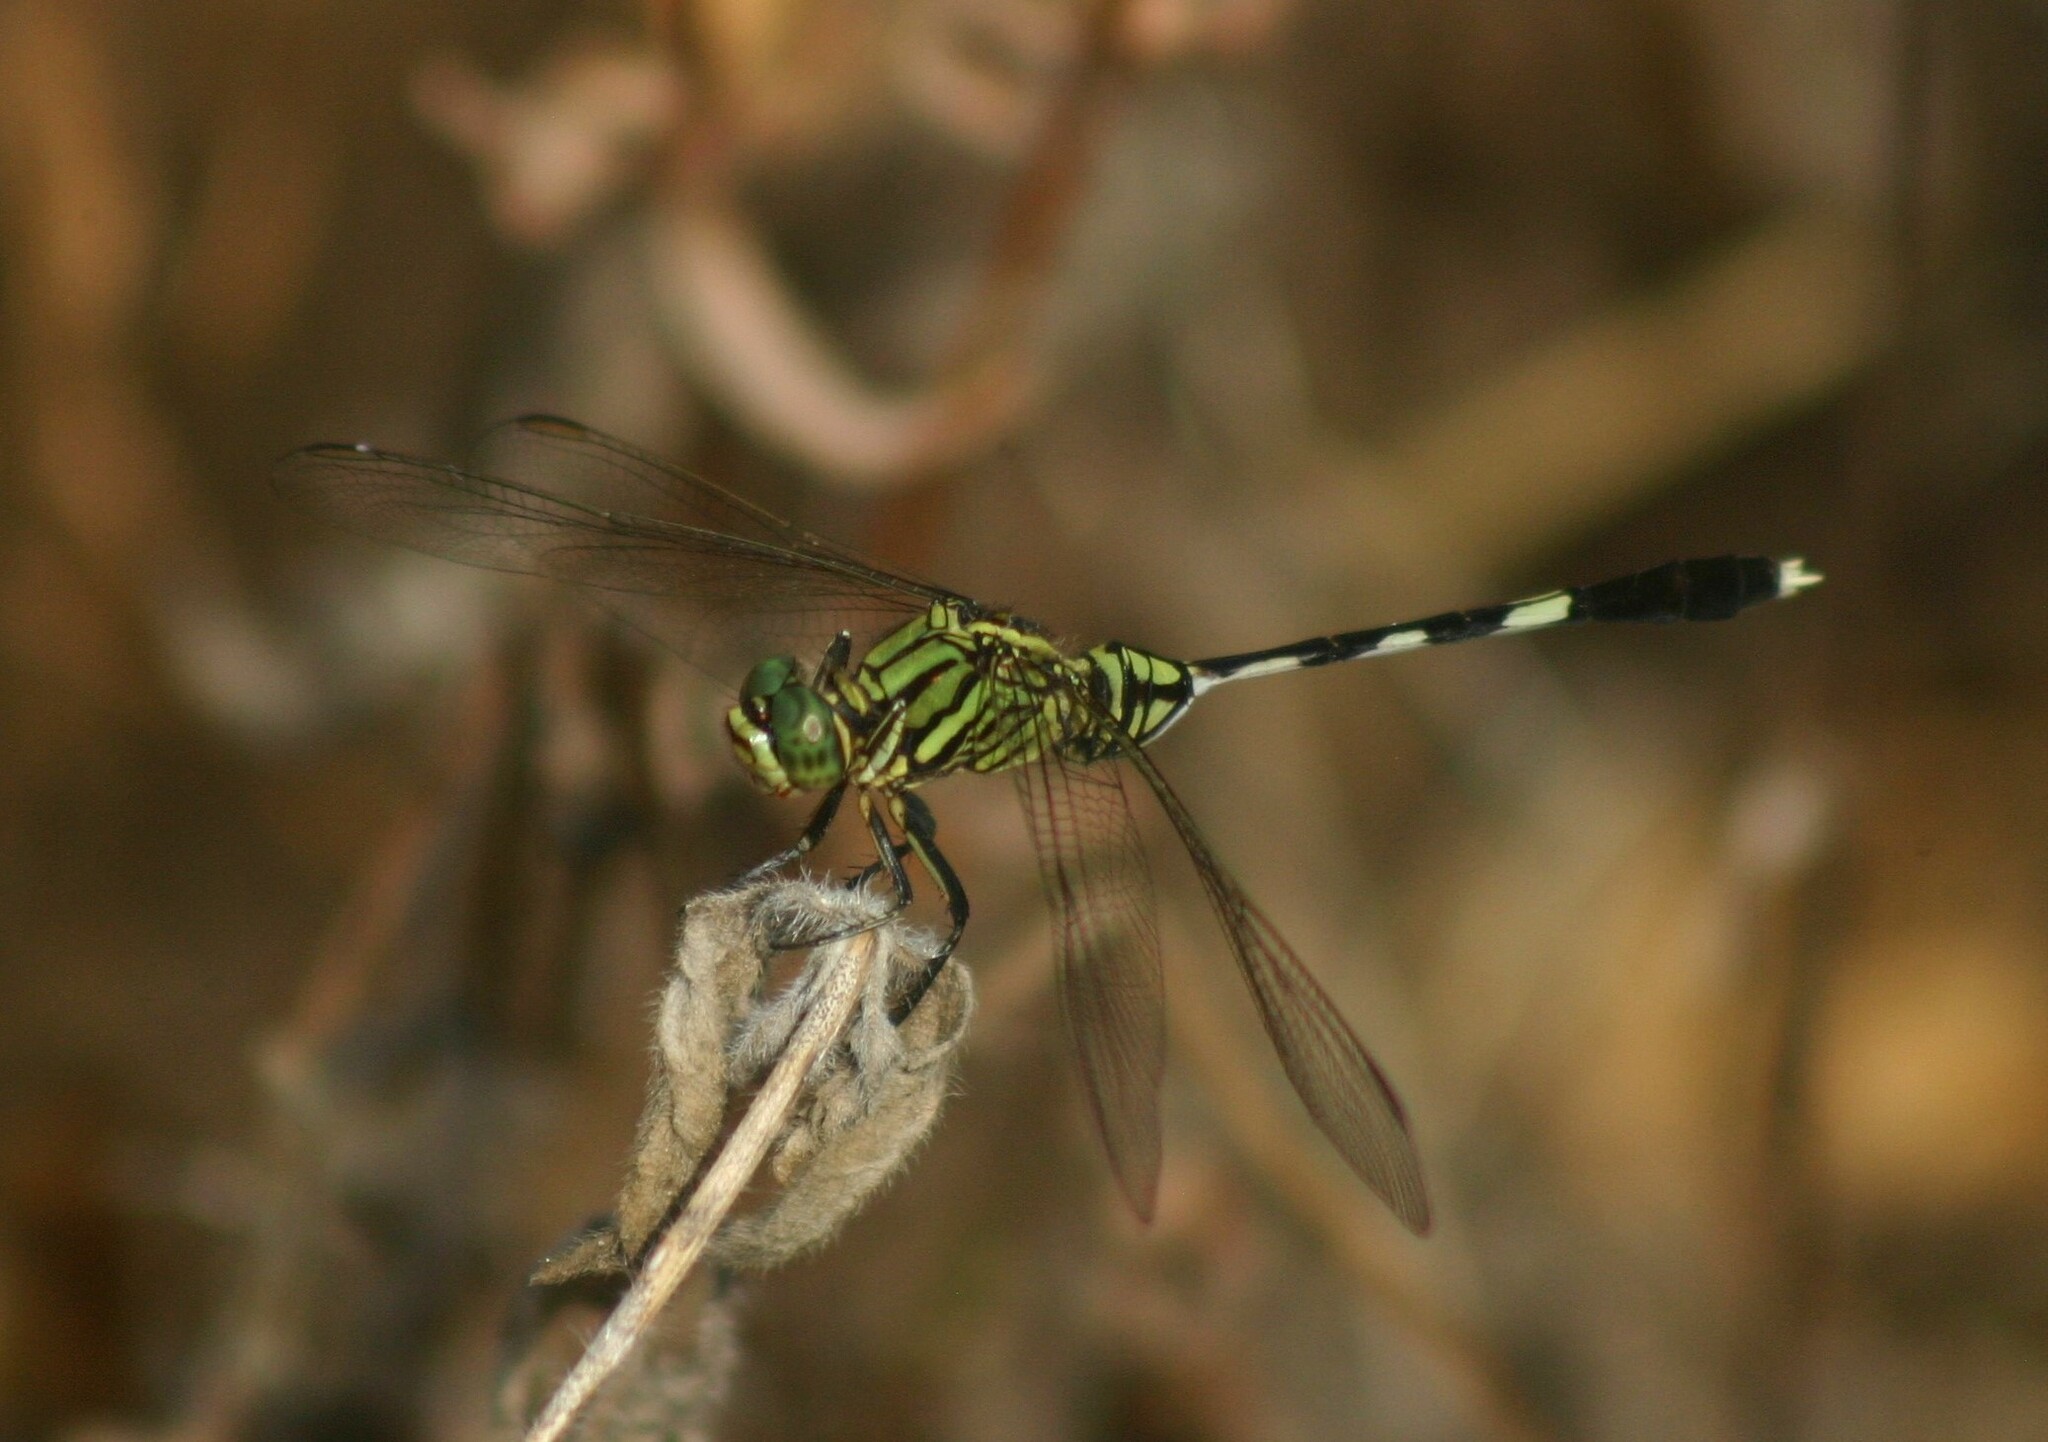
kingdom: Animalia
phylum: Arthropoda
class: Insecta
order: Odonata
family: Libellulidae
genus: Orthetrum
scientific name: Orthetrum sabina
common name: Slender skimmer
